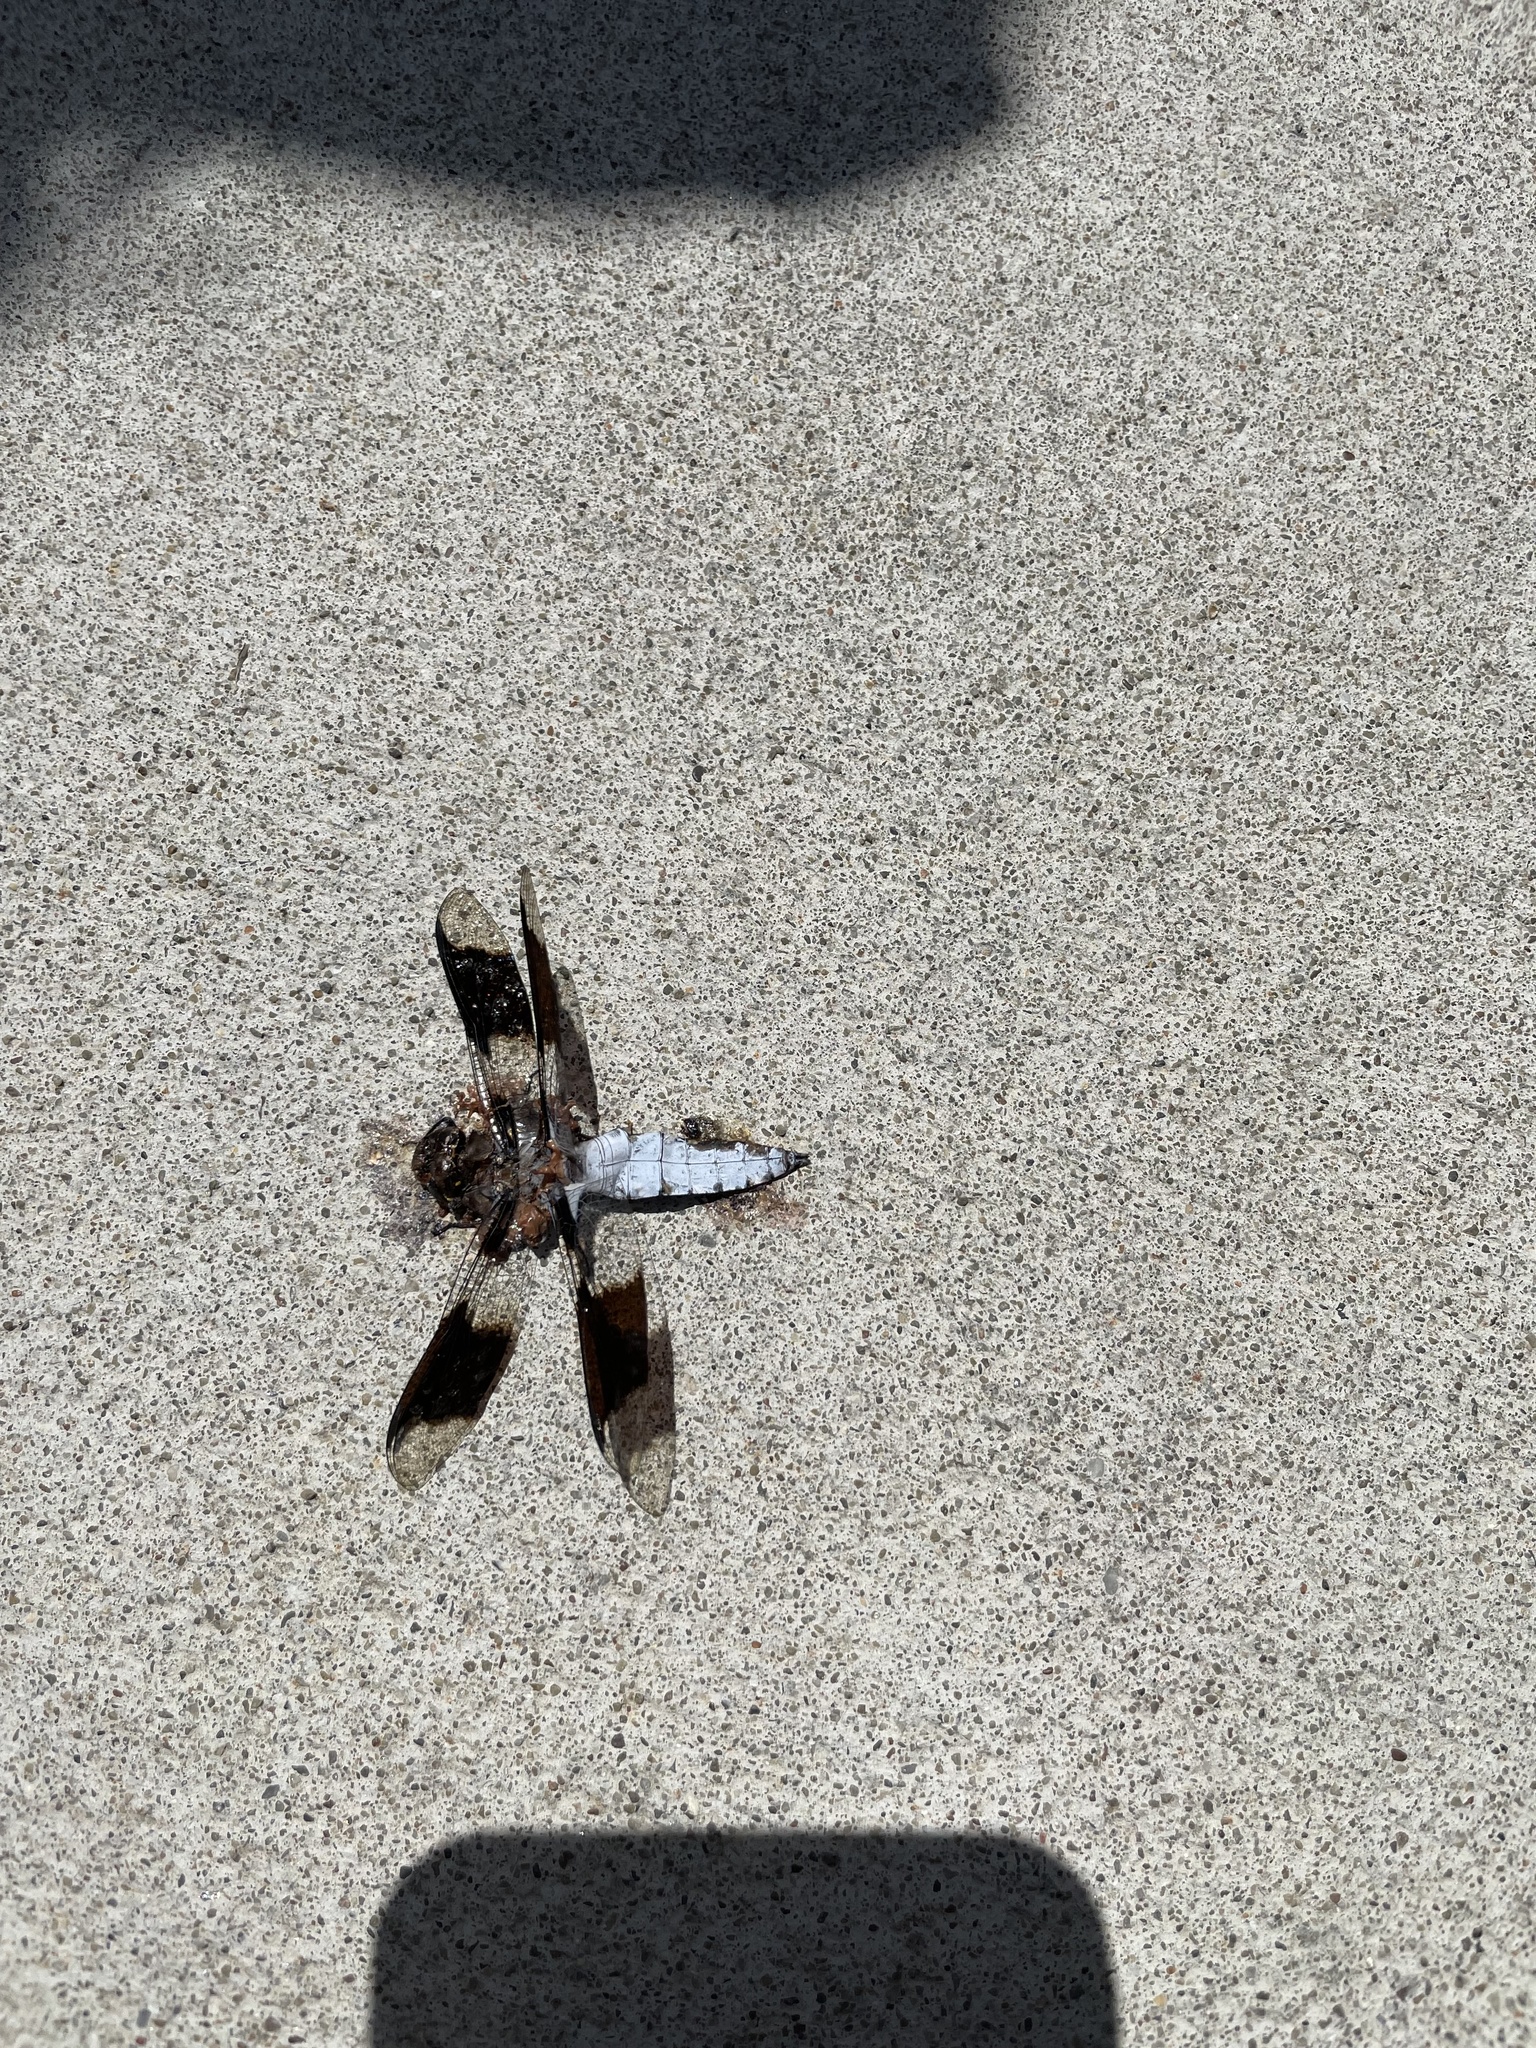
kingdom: Animalia
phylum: Arthropoda
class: Insecta
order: Odonata
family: Libellulidae
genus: Plathemis
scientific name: Plathemis lydia
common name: Common whitetail
